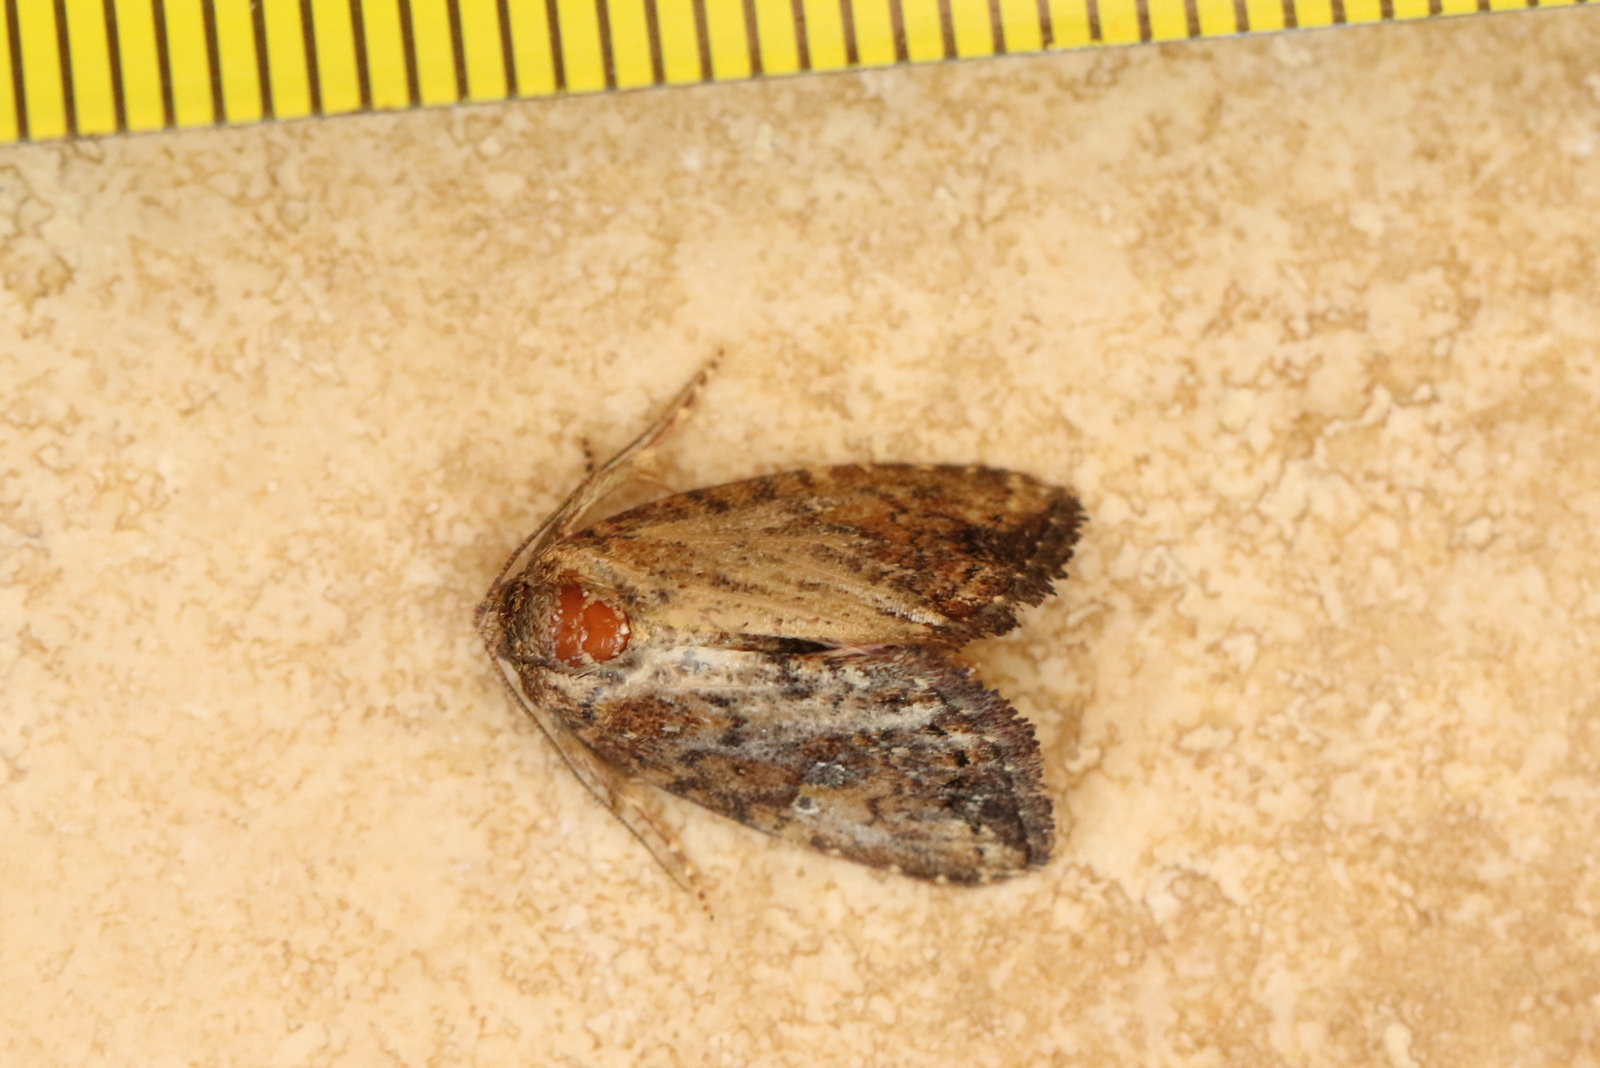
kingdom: Animalia
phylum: Arthropoda
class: Insecta
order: Lepidoptera
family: Noctuidae
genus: Elusa
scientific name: Elusa semipecten
